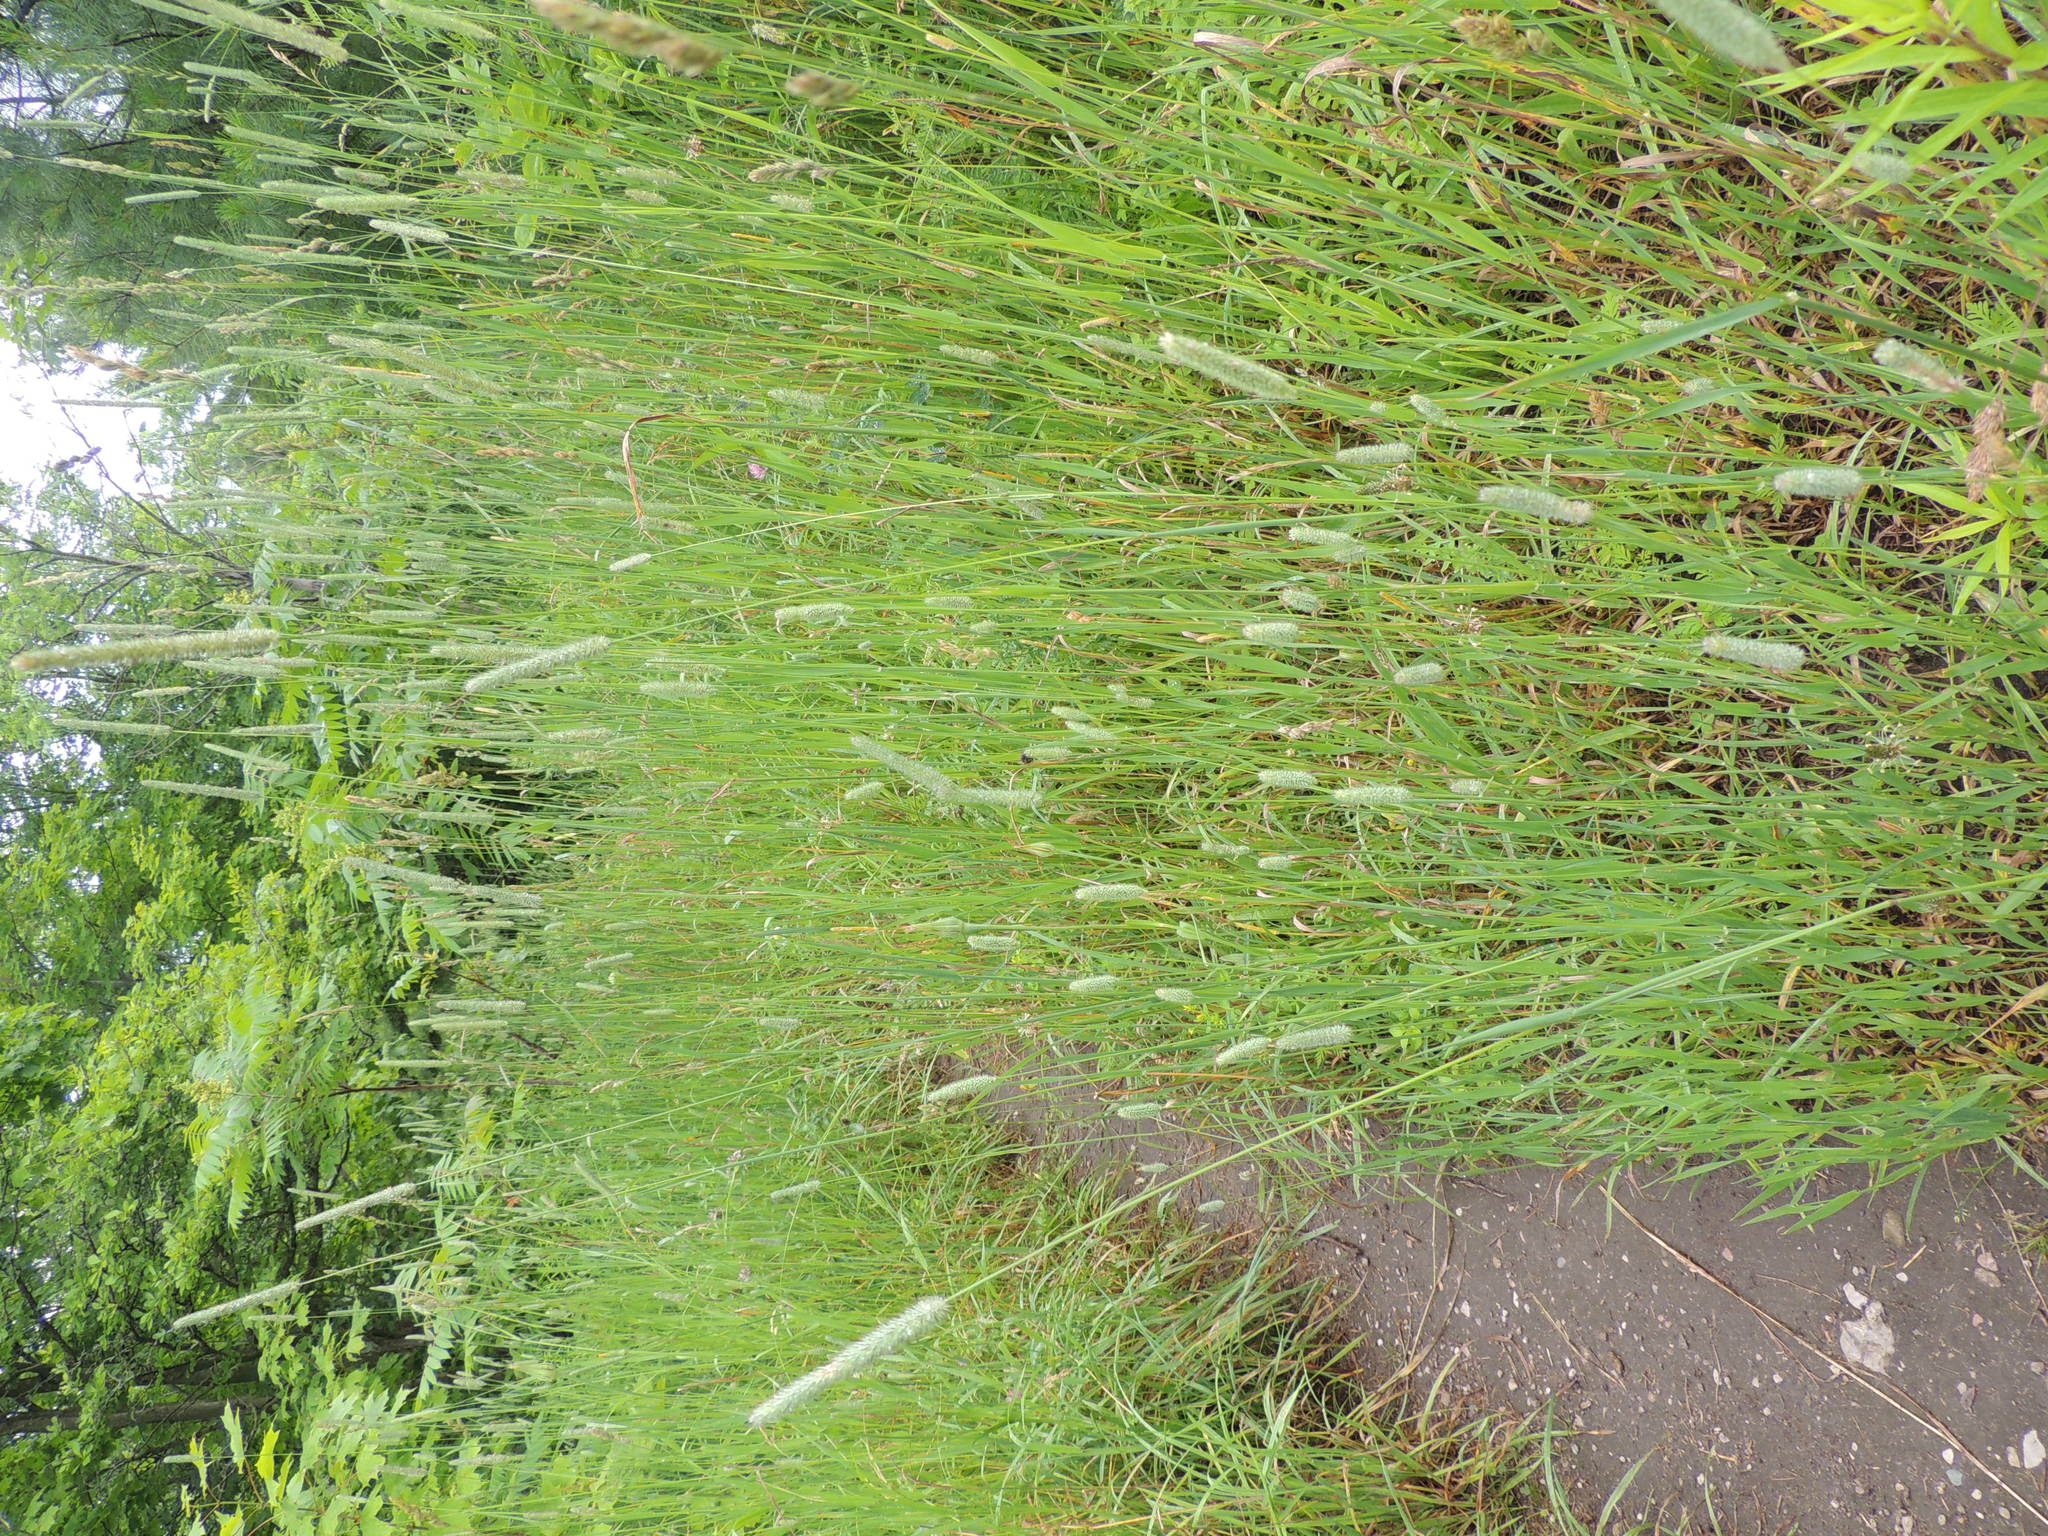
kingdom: Plantae
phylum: Tracheophyta
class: Liliopsida
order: Poales
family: Poaceae
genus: Phleum
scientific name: Phleum pratense
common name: Timothy grass
